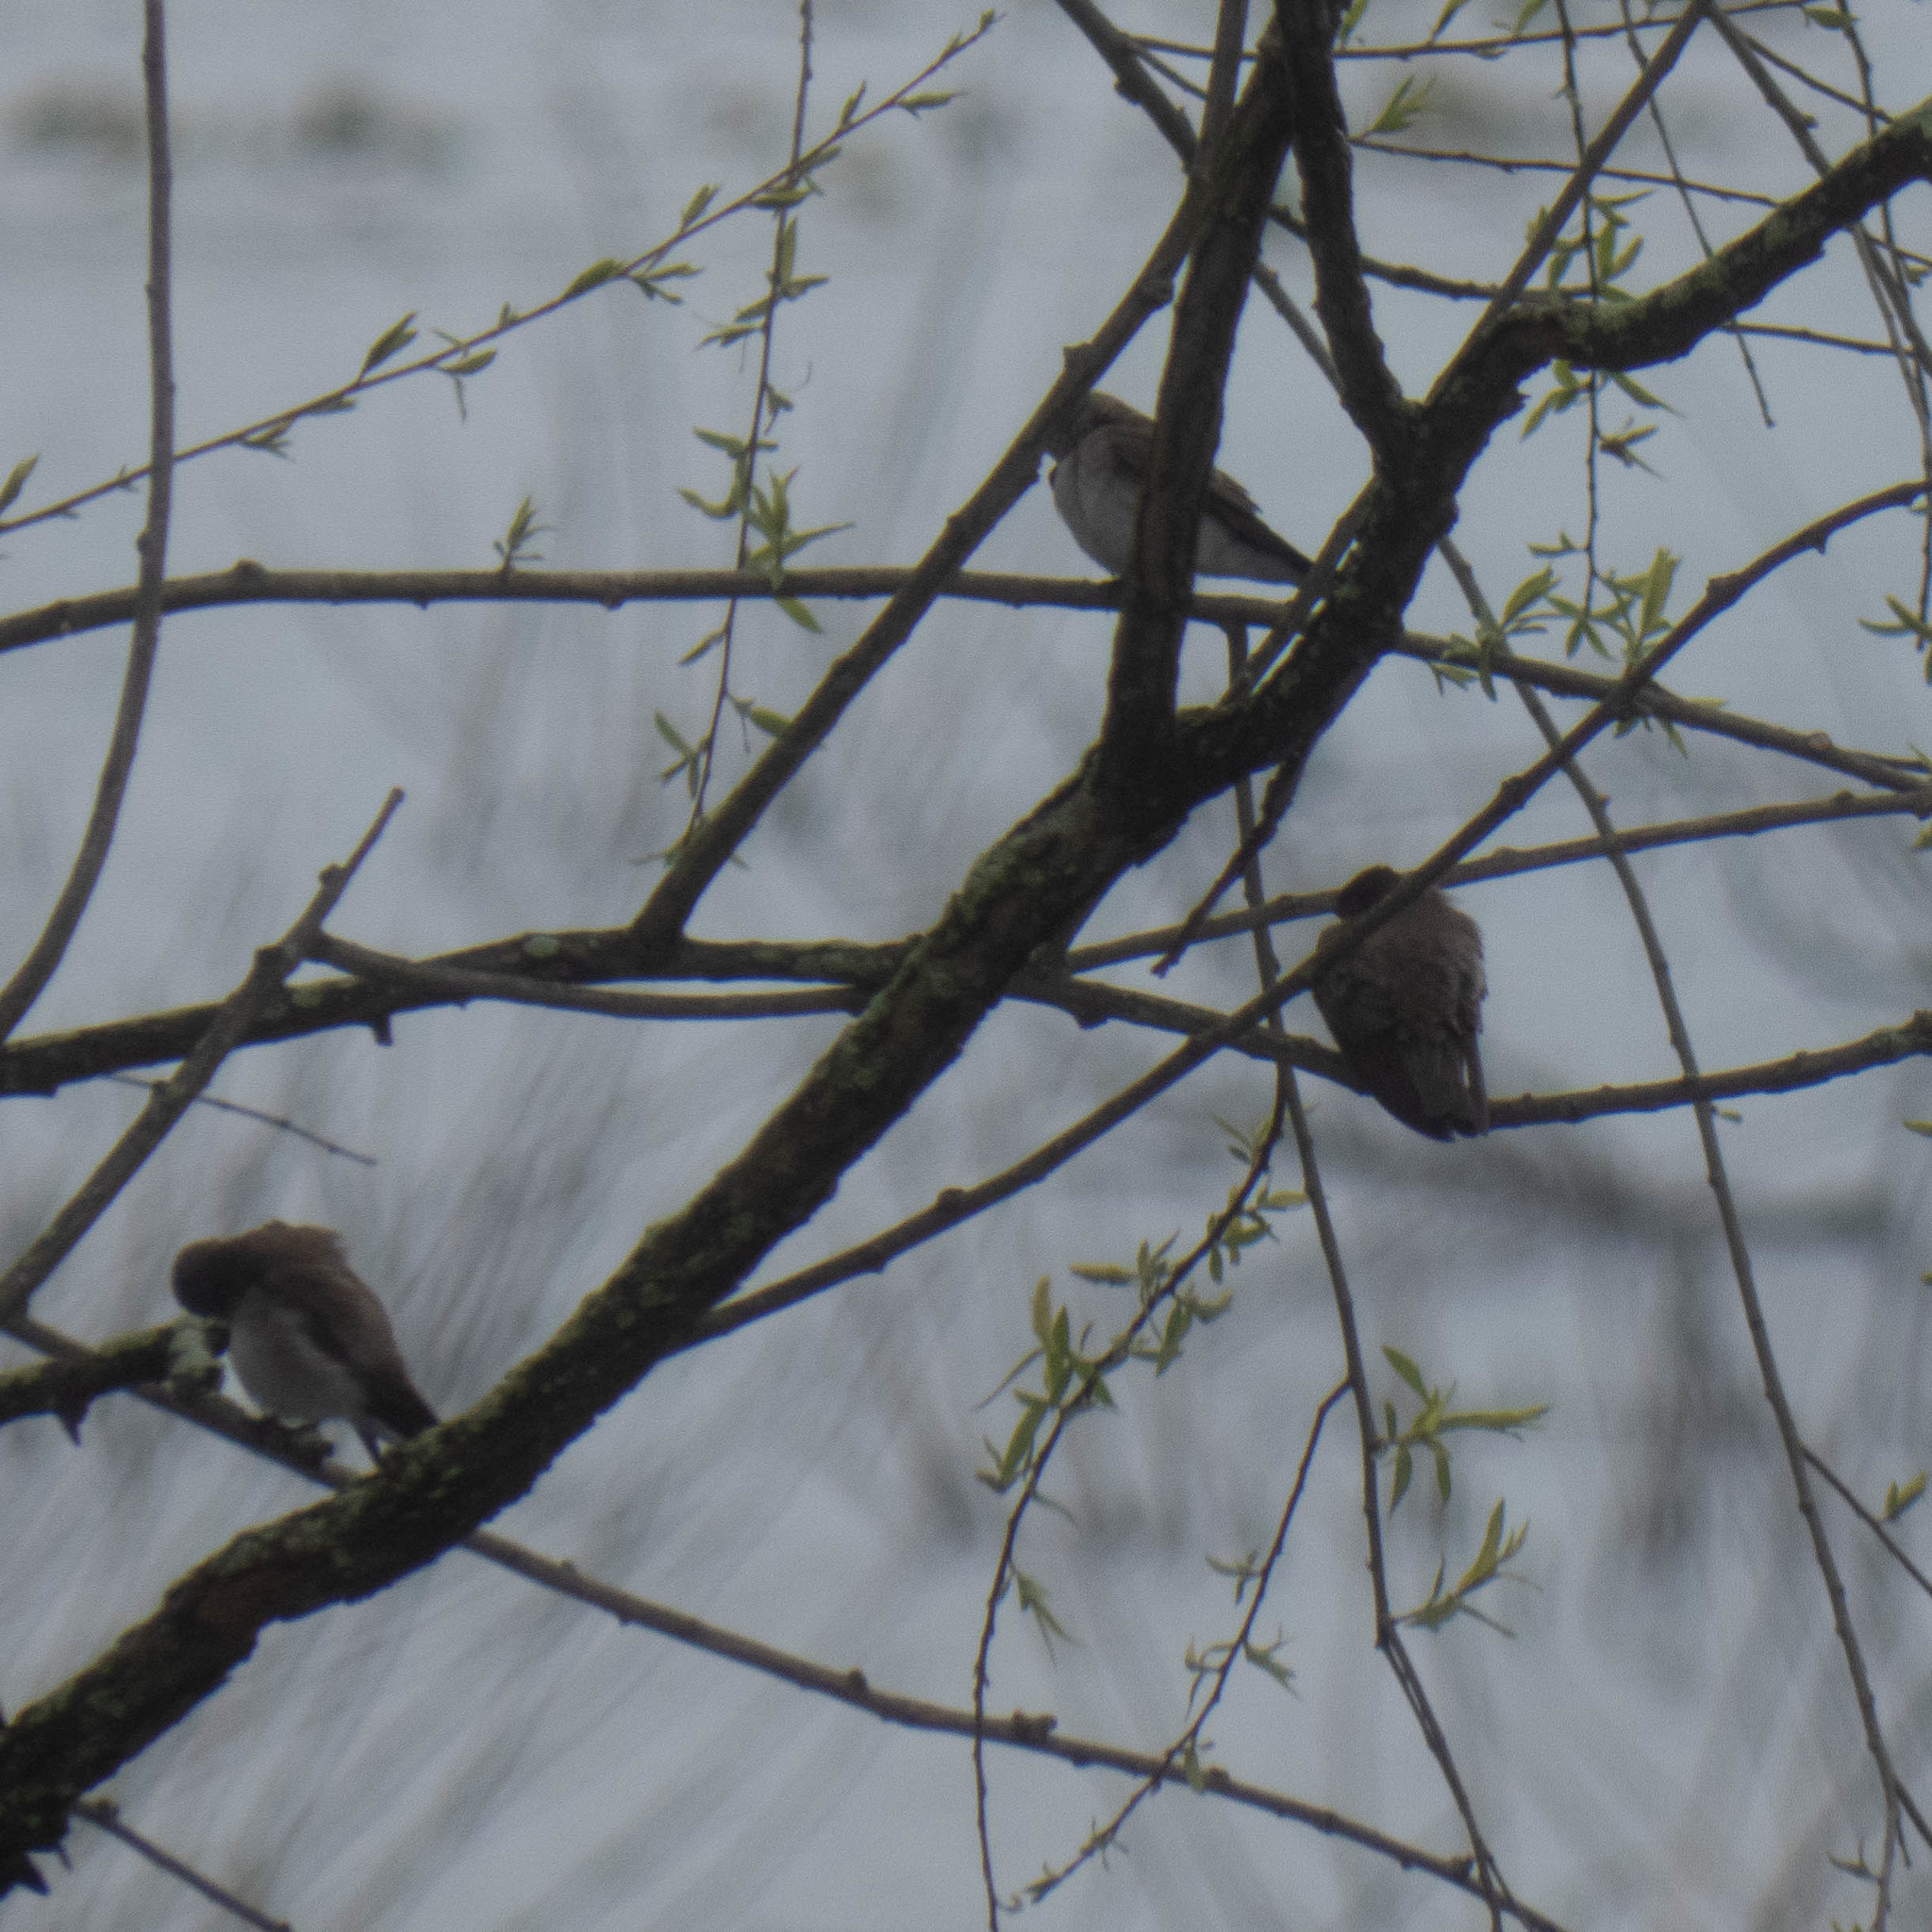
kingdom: Animalia
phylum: Chordata
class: Aves
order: Passeriformes
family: Hirundinidae
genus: Stelgidopteryx
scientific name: Stelgidopteryx serripennis
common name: Northern rough-winged swallow
